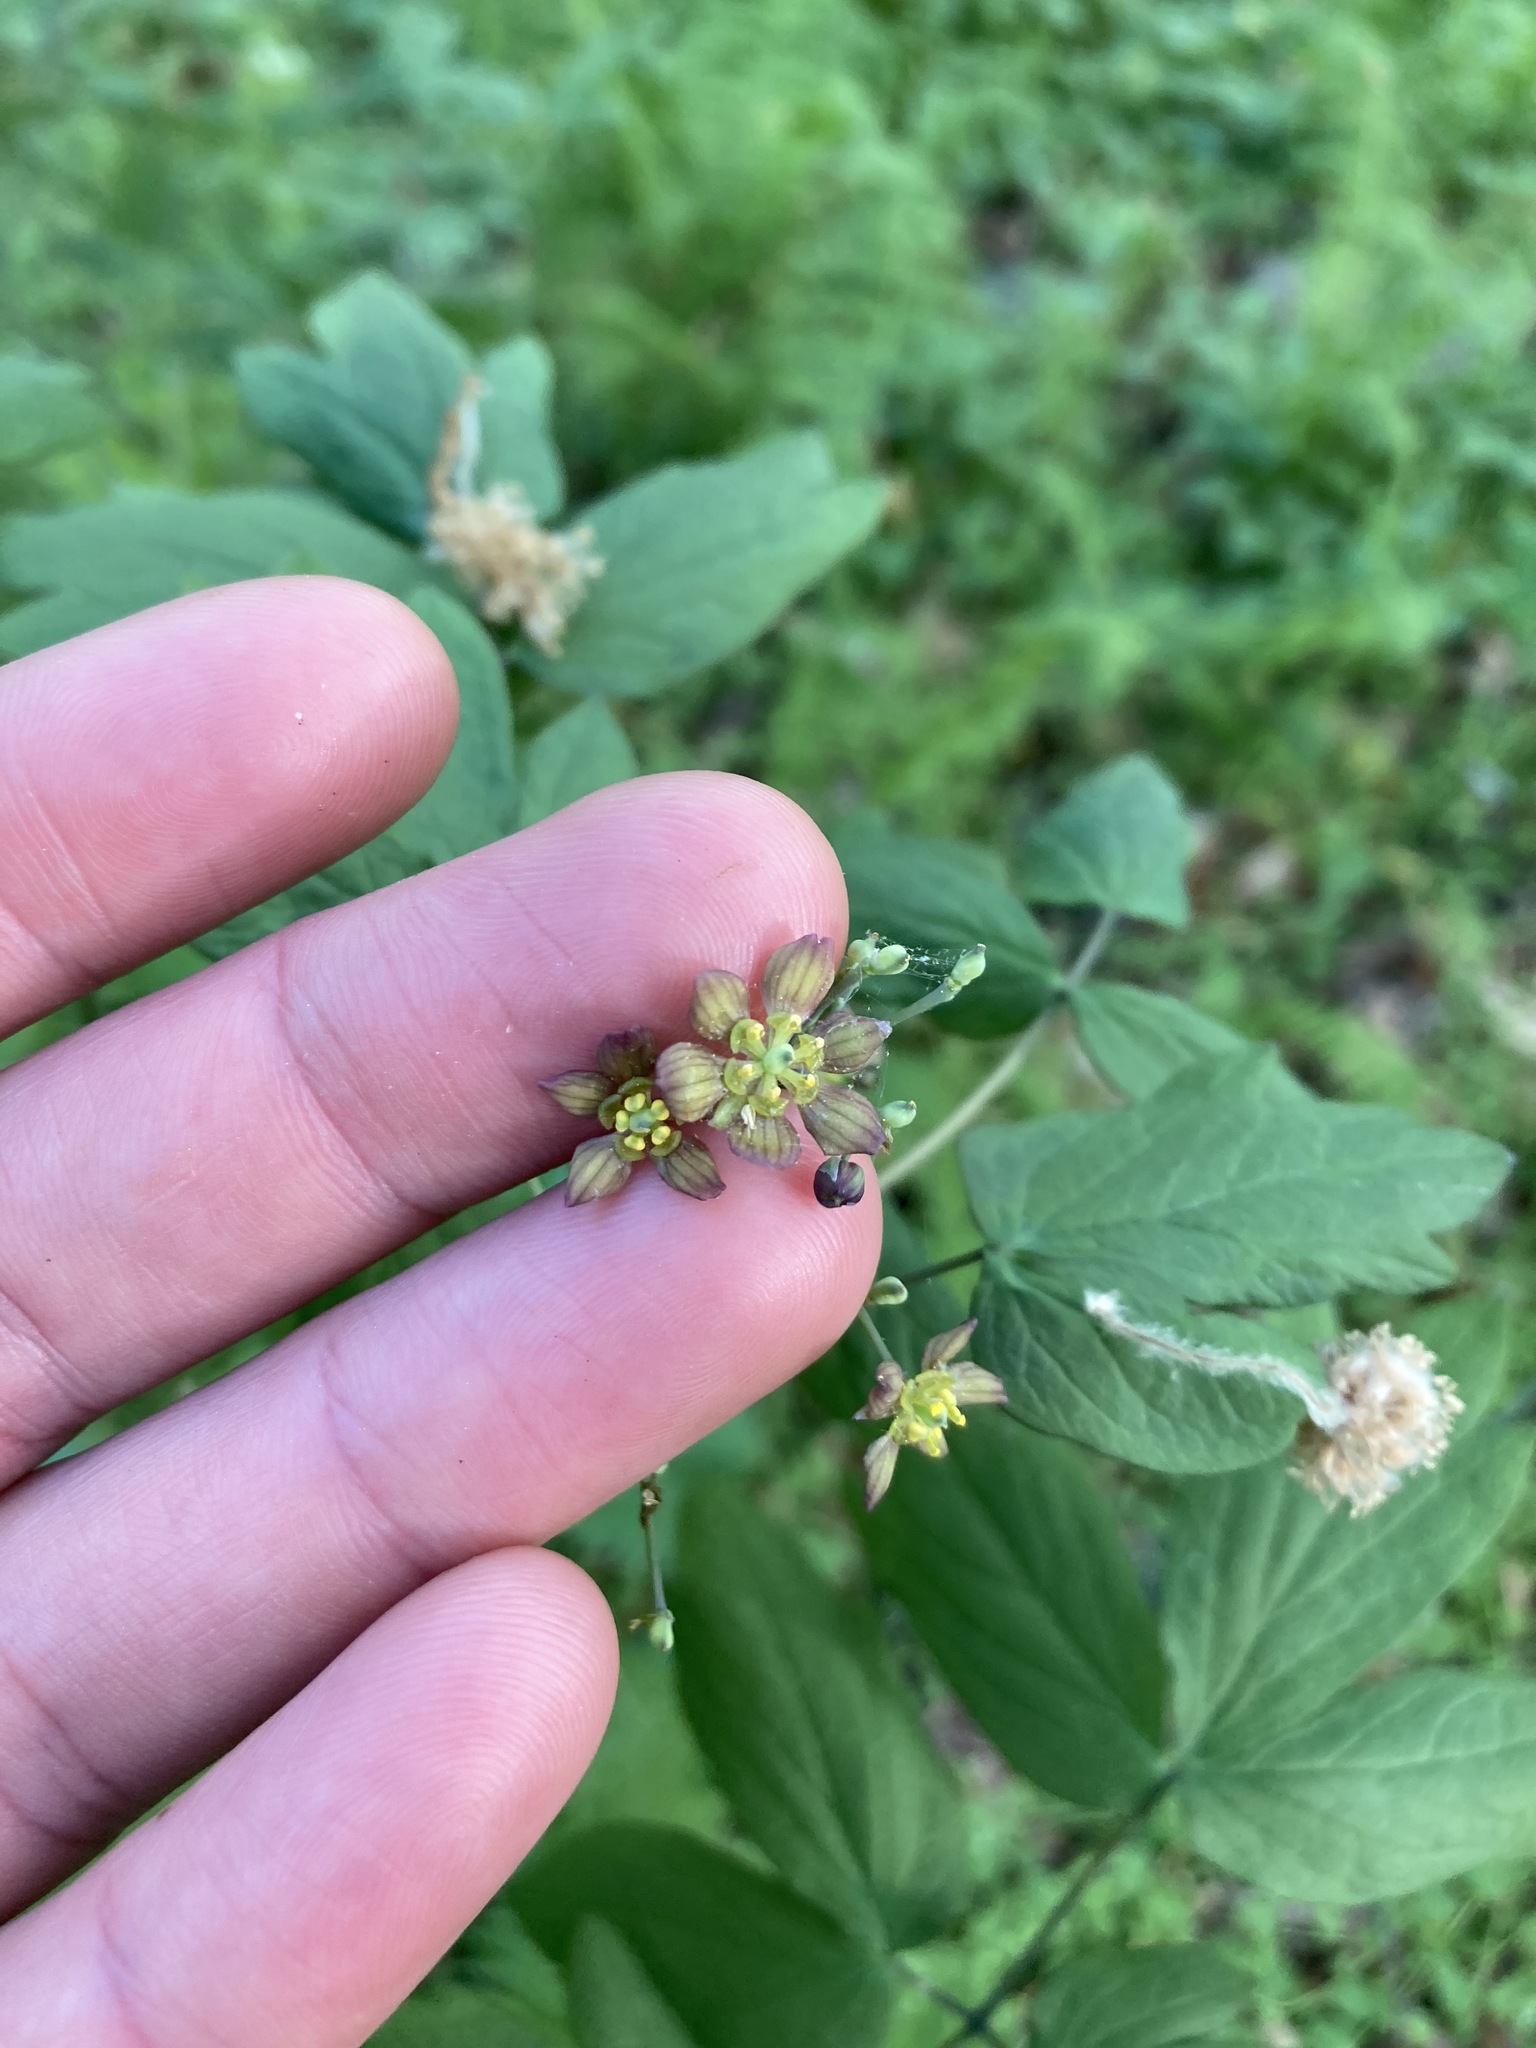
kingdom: Plantae
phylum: Tracheophyta
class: Magnoliopsida
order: Ranunculales
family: Berberidaceae
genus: Caulophyllum
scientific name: Caulophyllum thalictroides
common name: Blue cohosh
